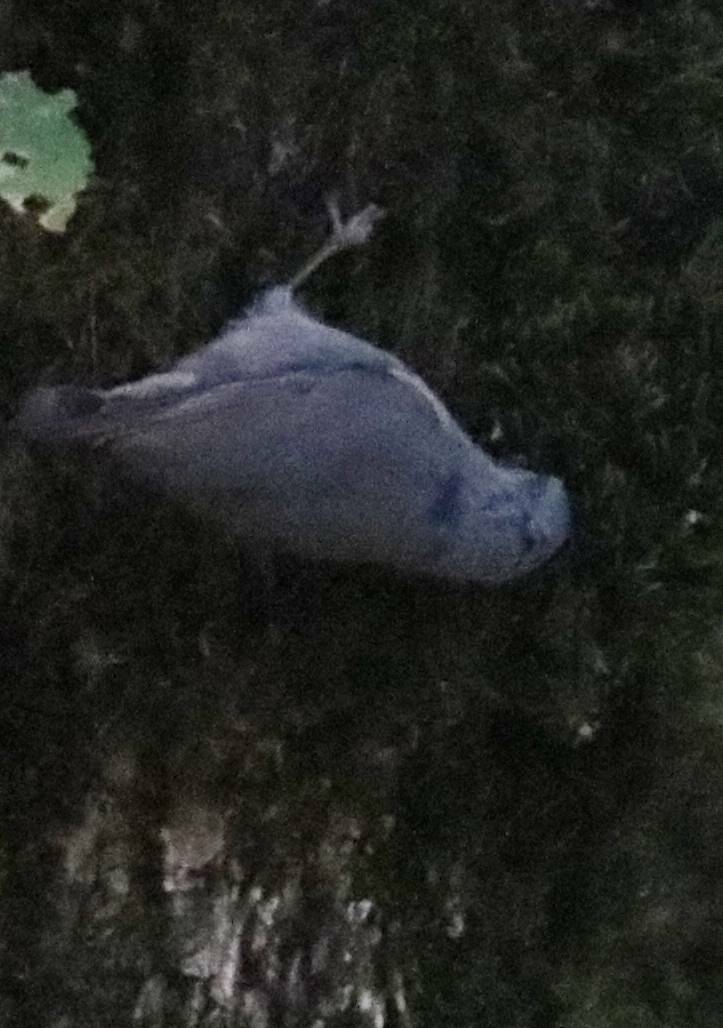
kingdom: Animalia
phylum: Chordata
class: Aves
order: Passeriformes
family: Sittidae
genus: Sitta
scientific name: Sitta ledanti
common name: Algerian nuthatch
